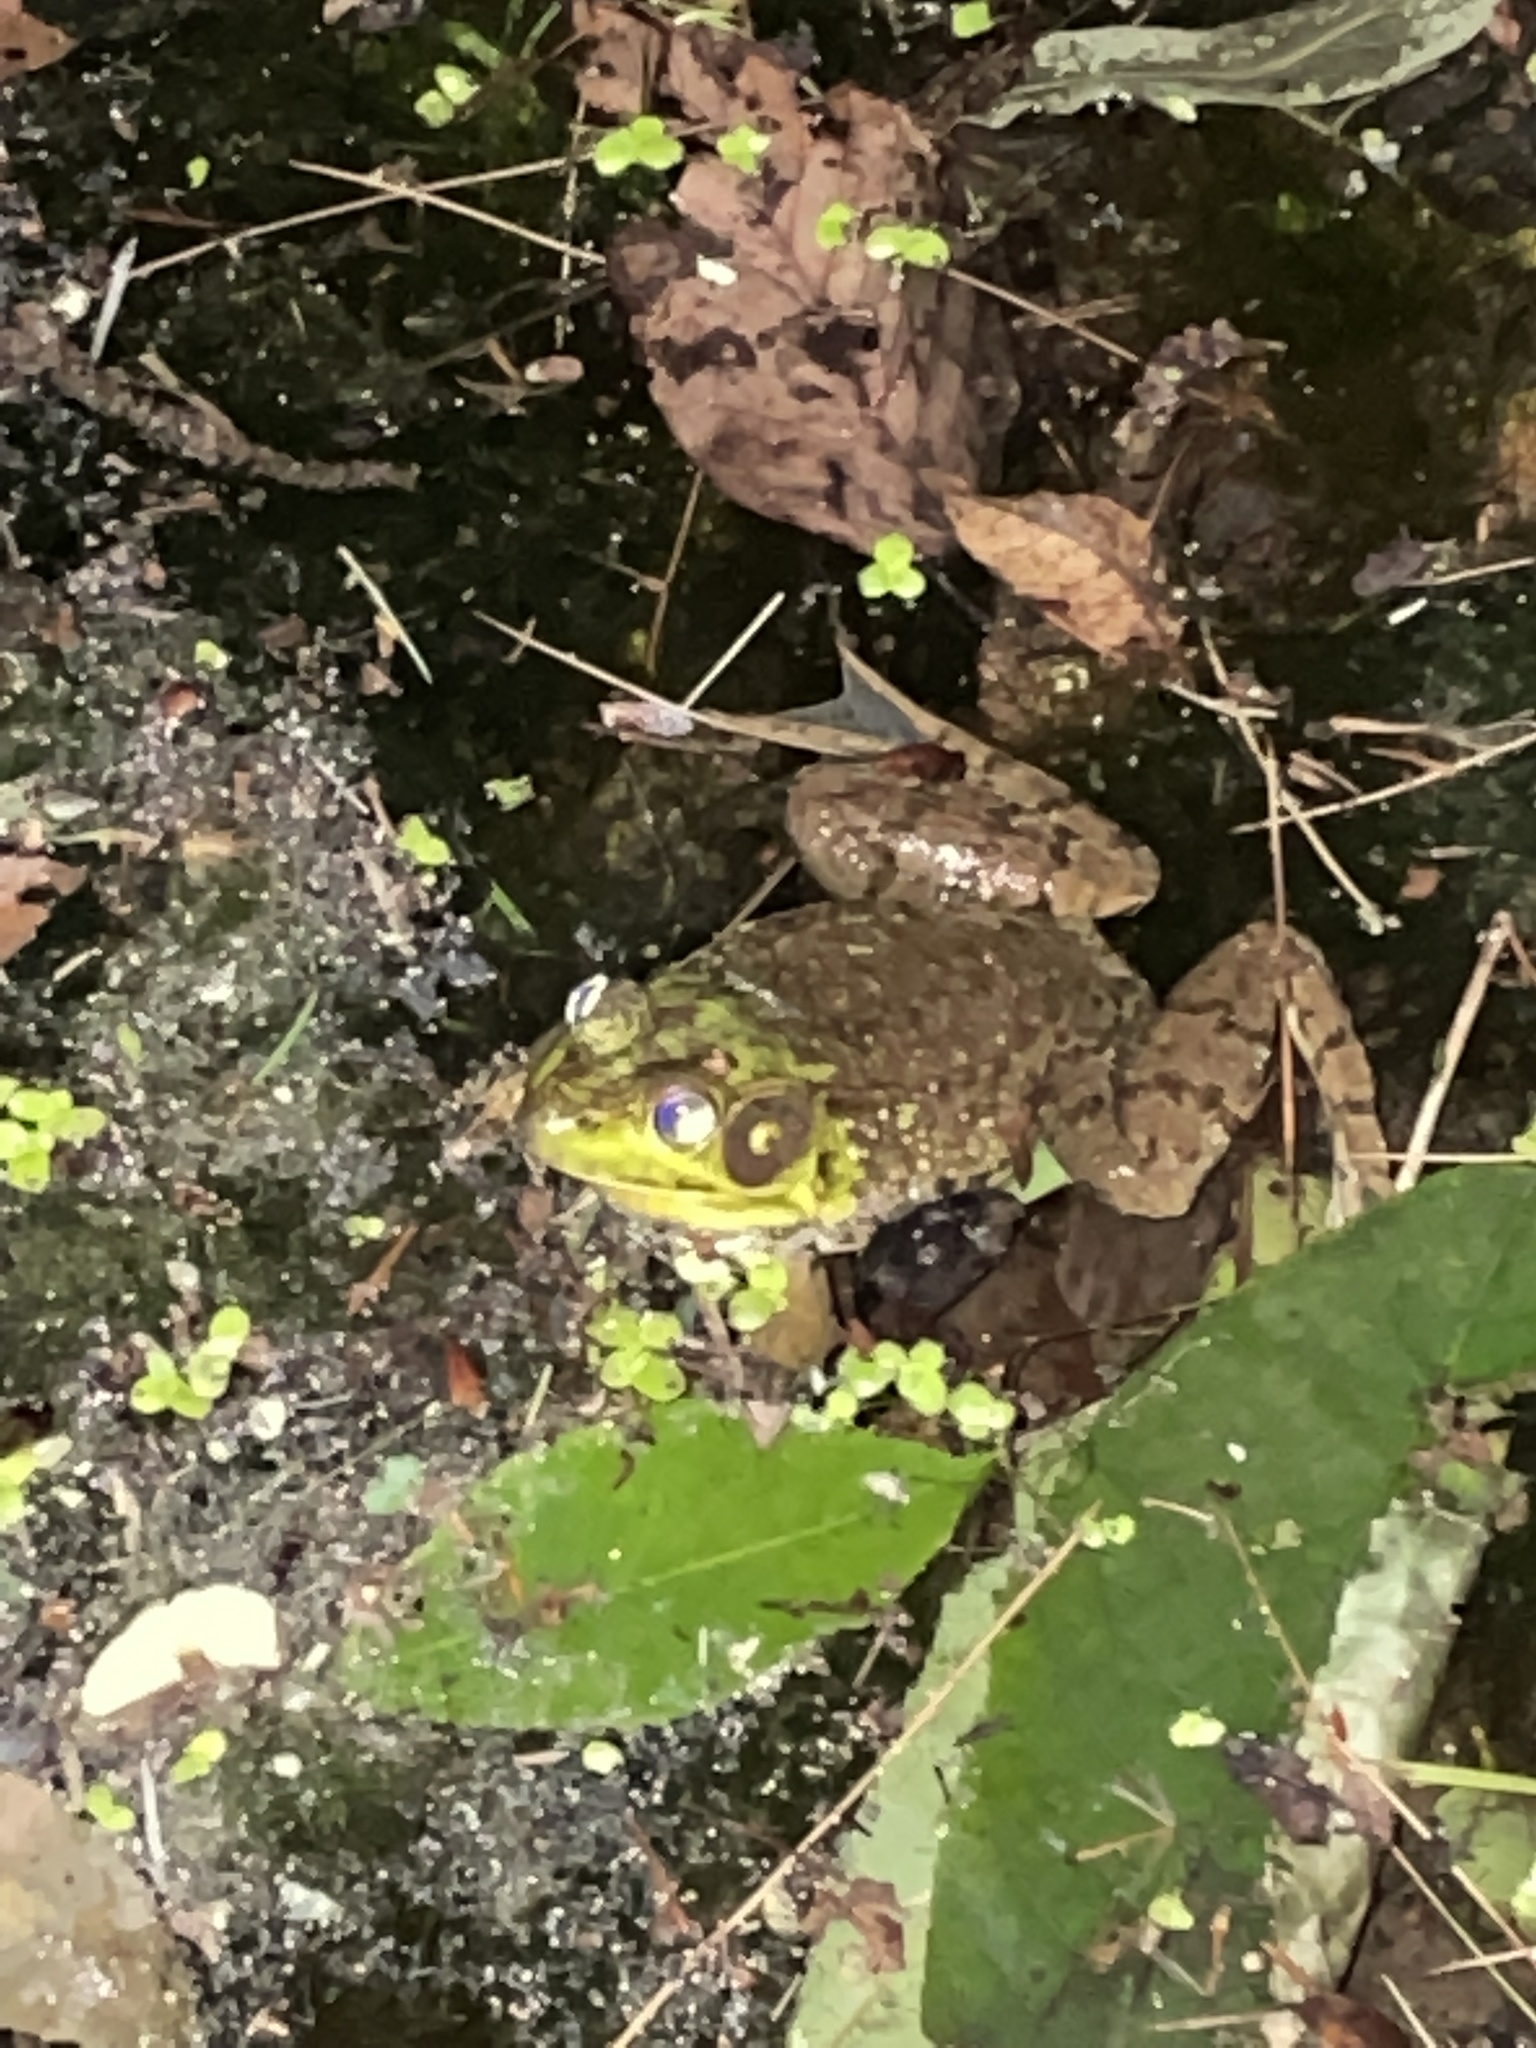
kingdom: Animalia
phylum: Chordata
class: Amphibia
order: Anura
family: Ranidae
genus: Lithobates
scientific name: Lithobates clamitans
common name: Green frog
